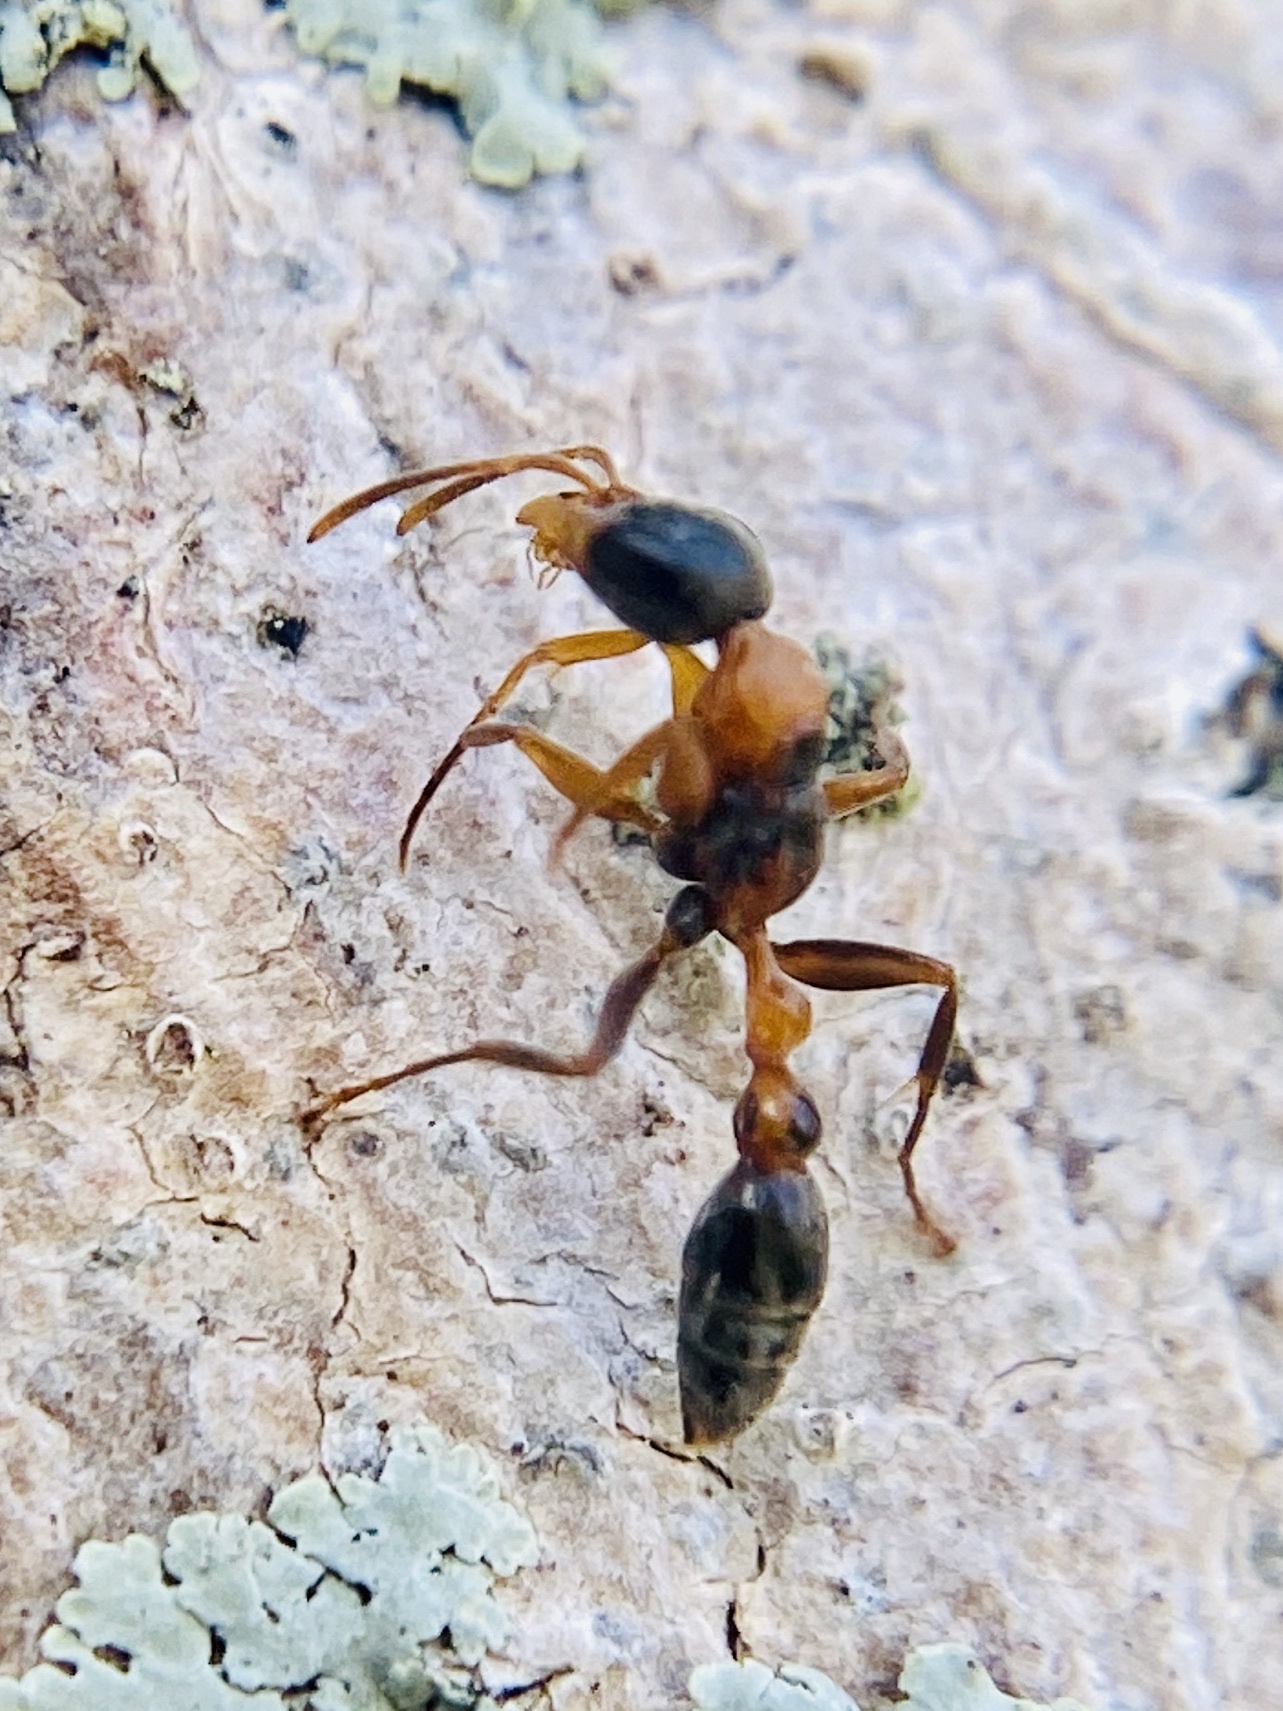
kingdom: Animalia
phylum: Arthropoda
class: Insecta
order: Hymenoptera
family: Formicidae
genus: Pseudomyrmex
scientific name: Pseudomyrmex gracilis
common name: Graceful twig ant
